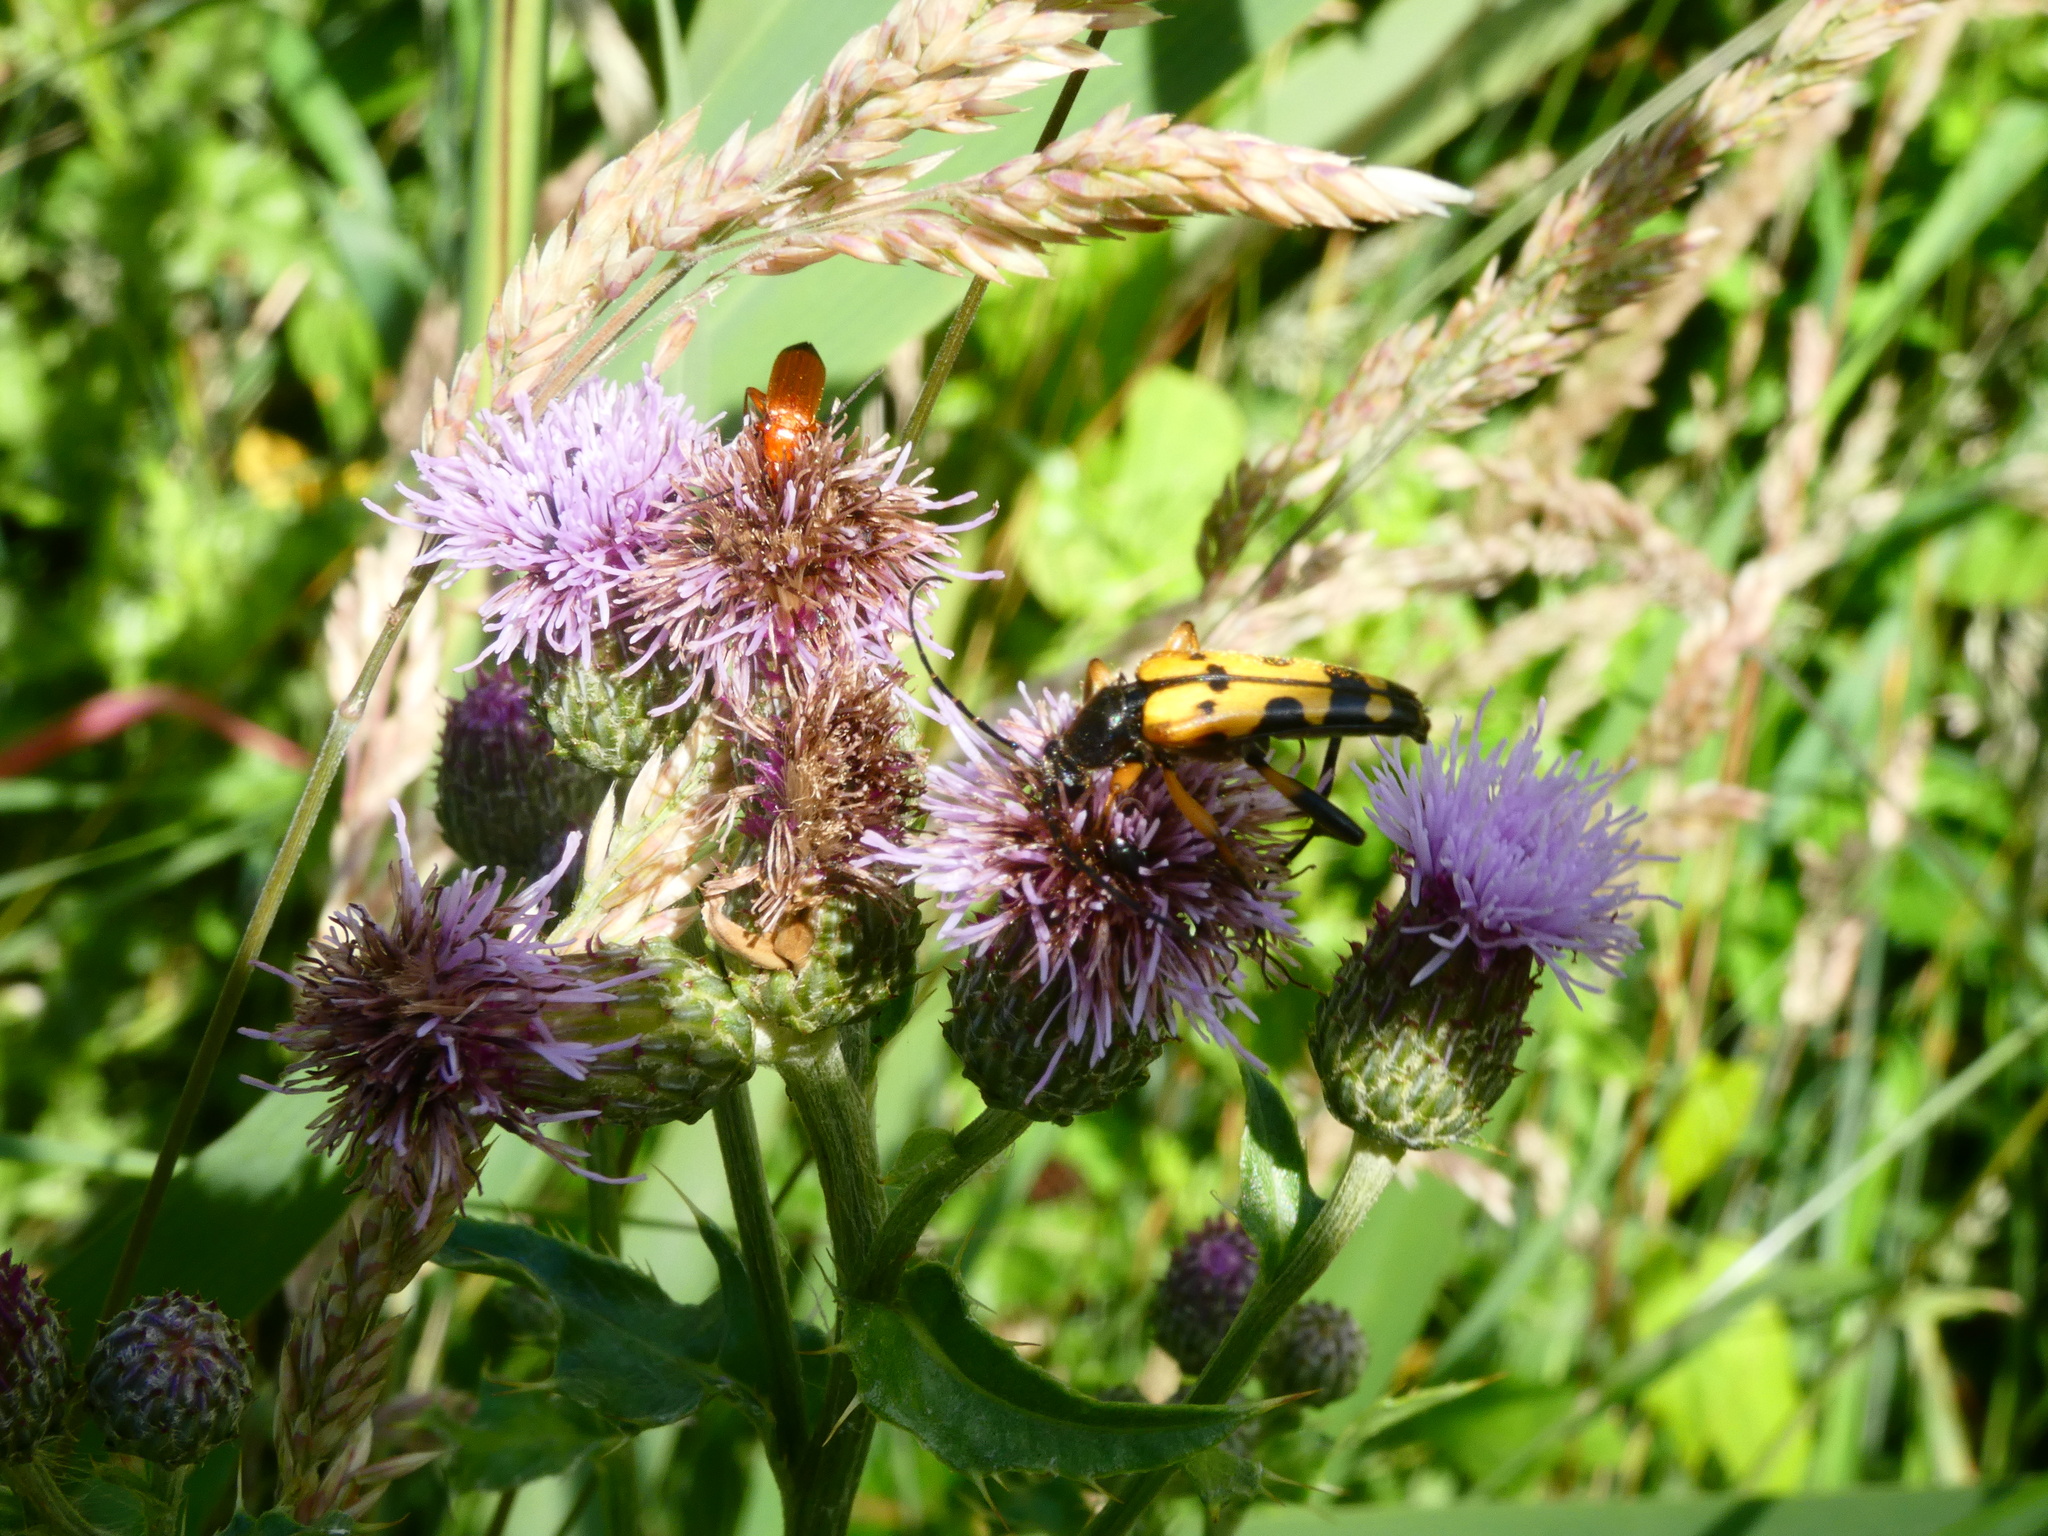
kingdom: Animalia
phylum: Arthropoda
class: Insecta
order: Coleoptera
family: Cerambycidae
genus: Rutpela
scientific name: Rutpela maculata
